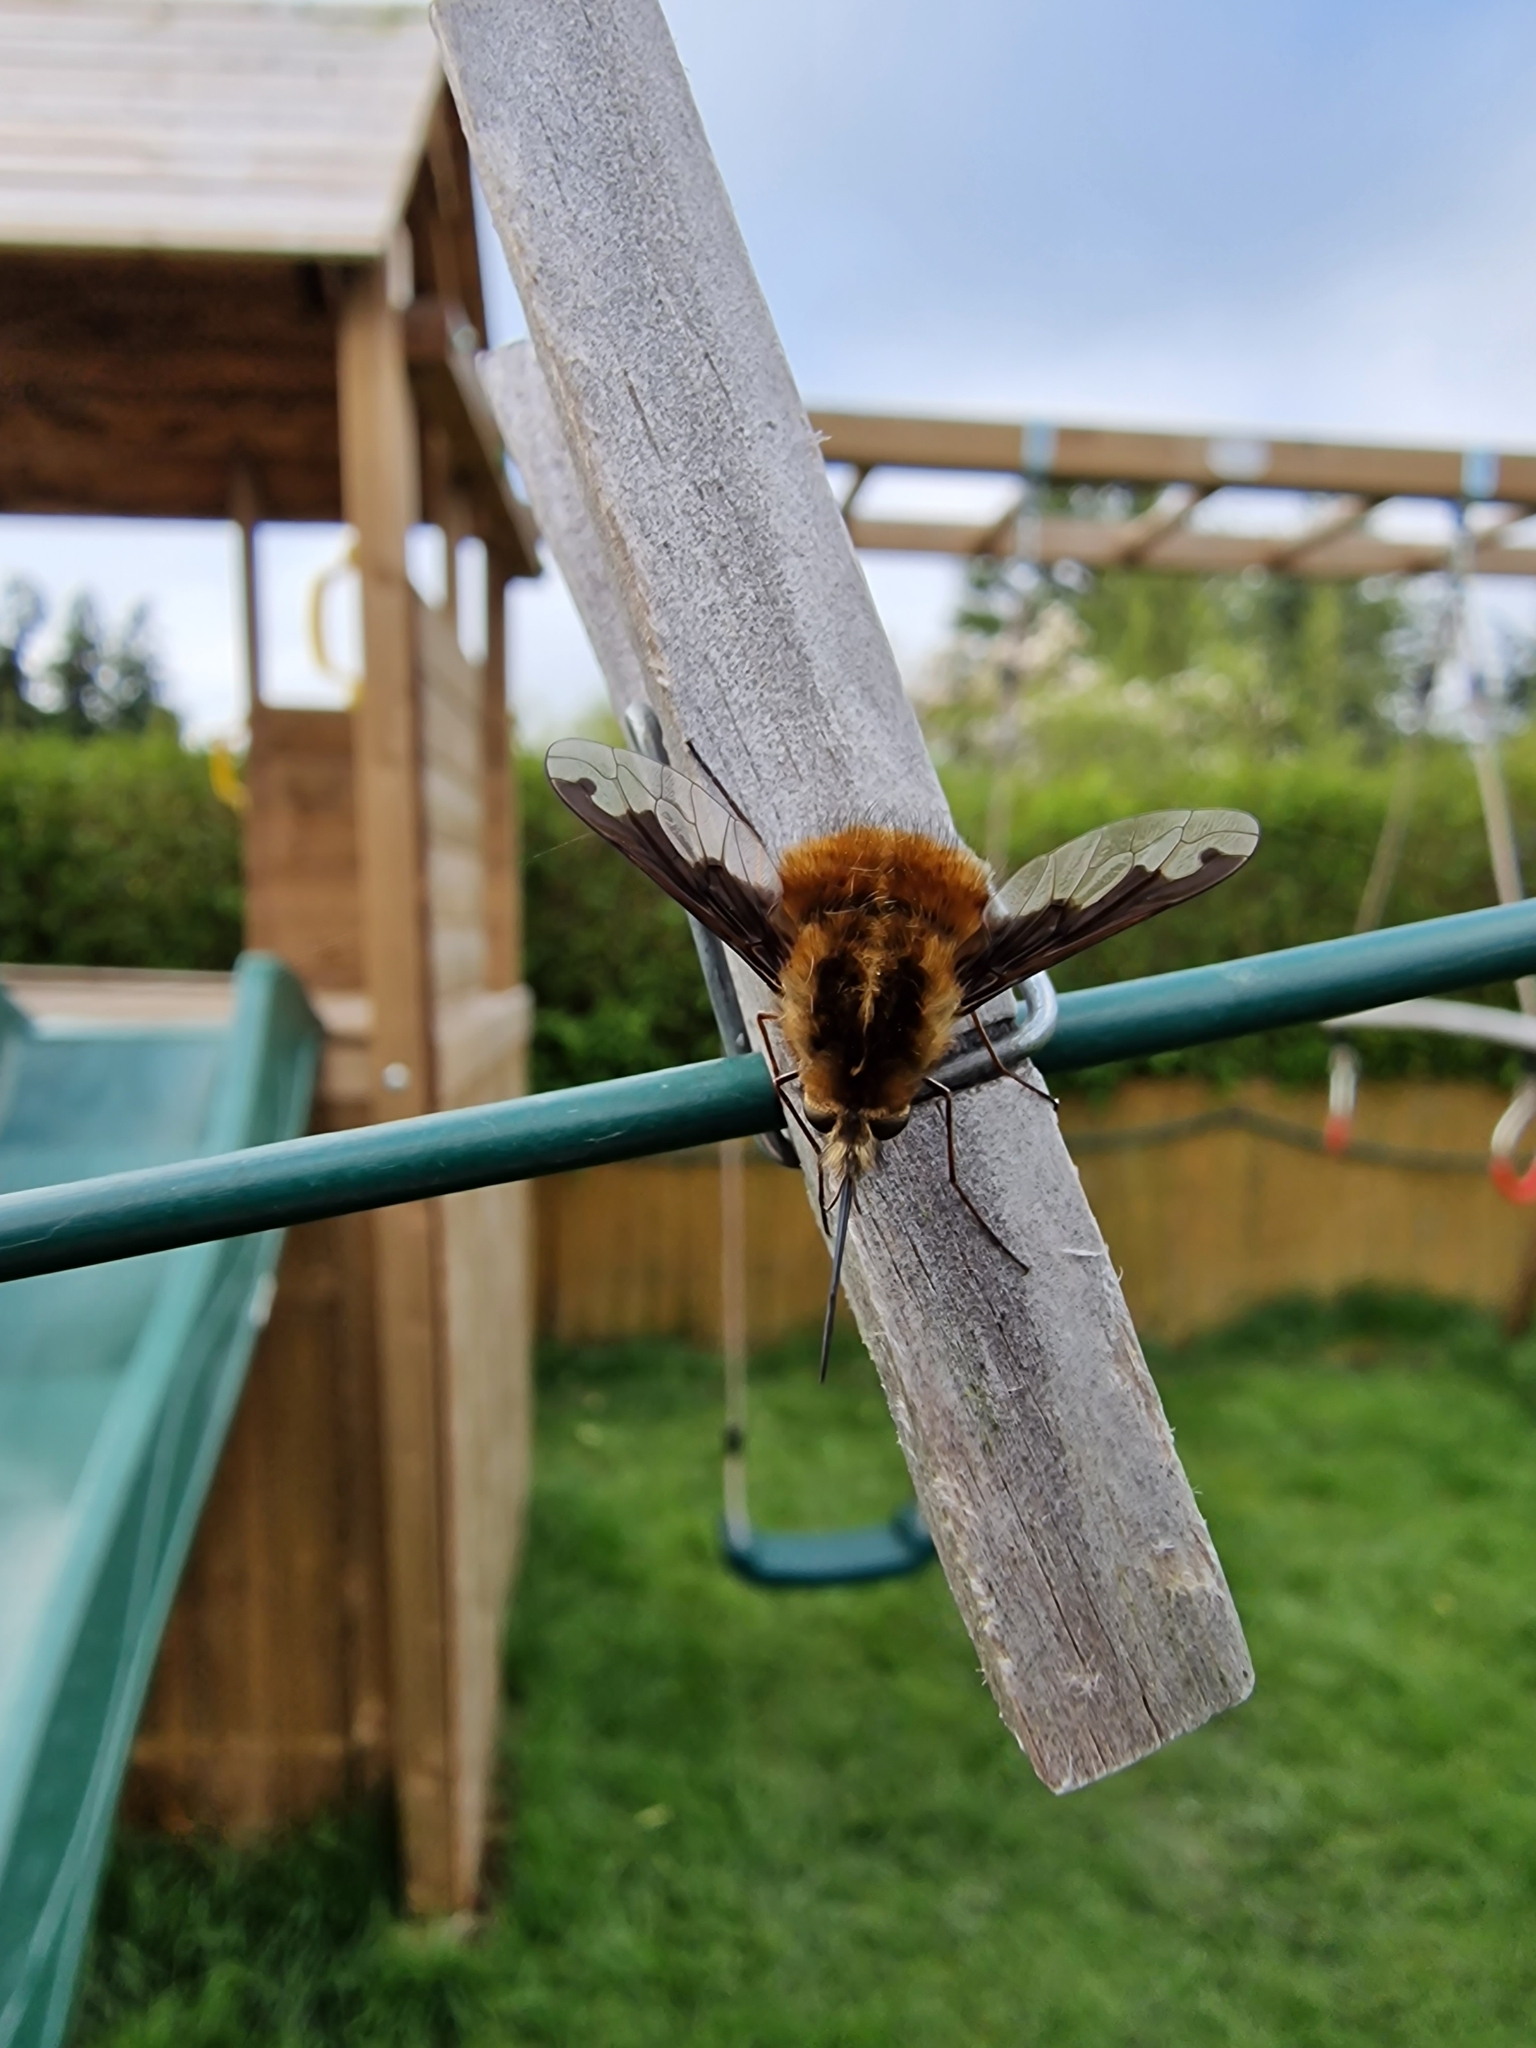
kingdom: Animalia
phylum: Arthropoda
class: Insecta
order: Diptera
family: Bombyliidae
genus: Bombylius
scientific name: Bombylius major
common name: Bee fly
